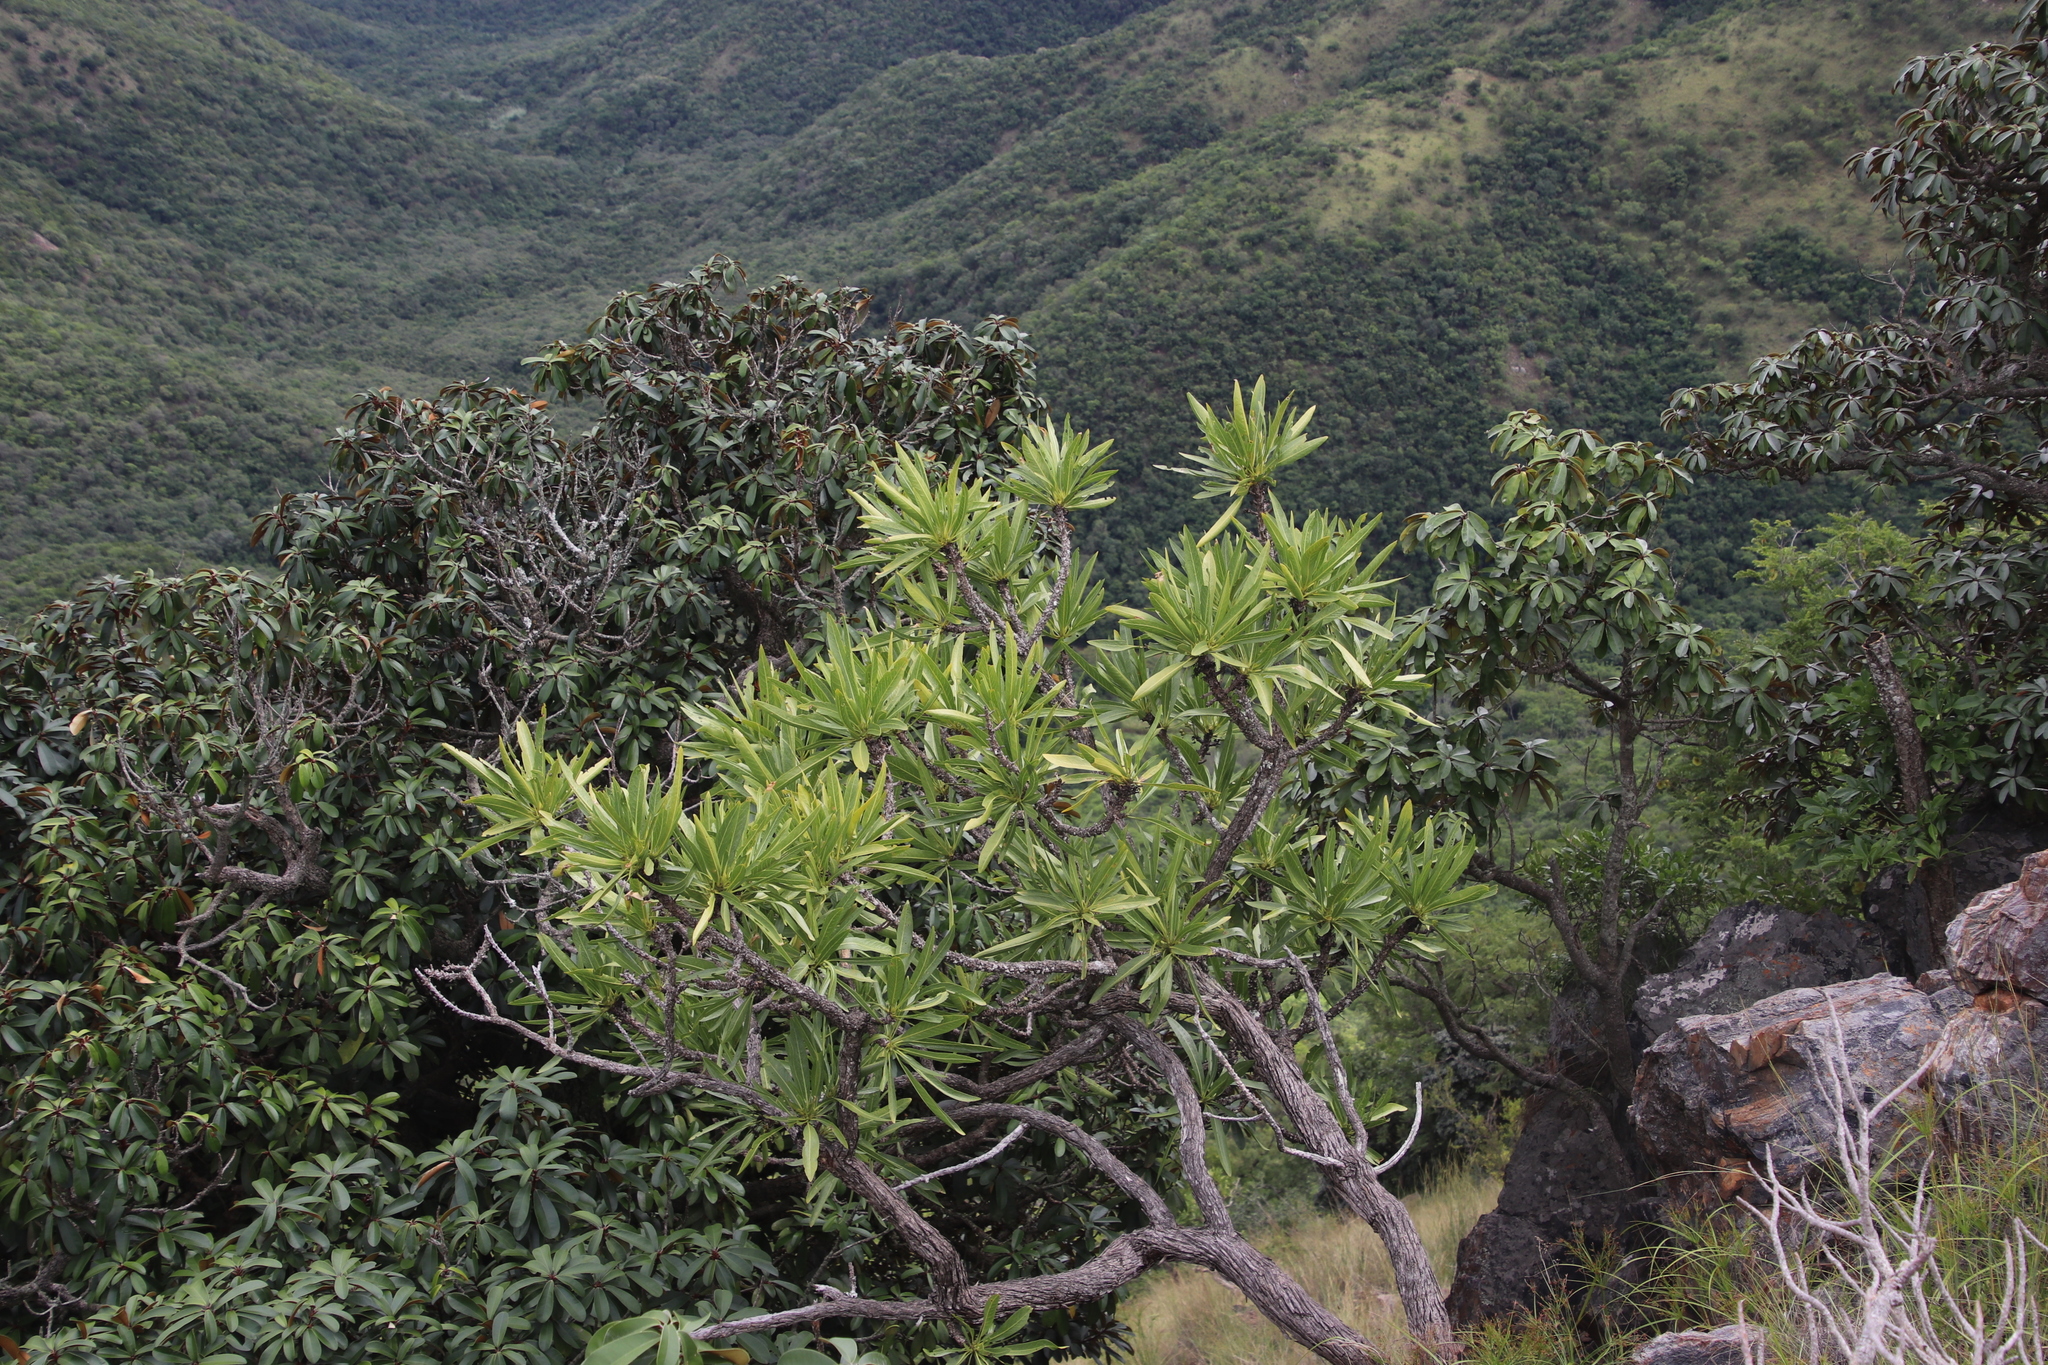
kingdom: Plantae
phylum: Tracheophyta
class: Magnoliopsida
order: Gentianales
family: Rubiaceae
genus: Pavetta
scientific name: Pavetta edentula
